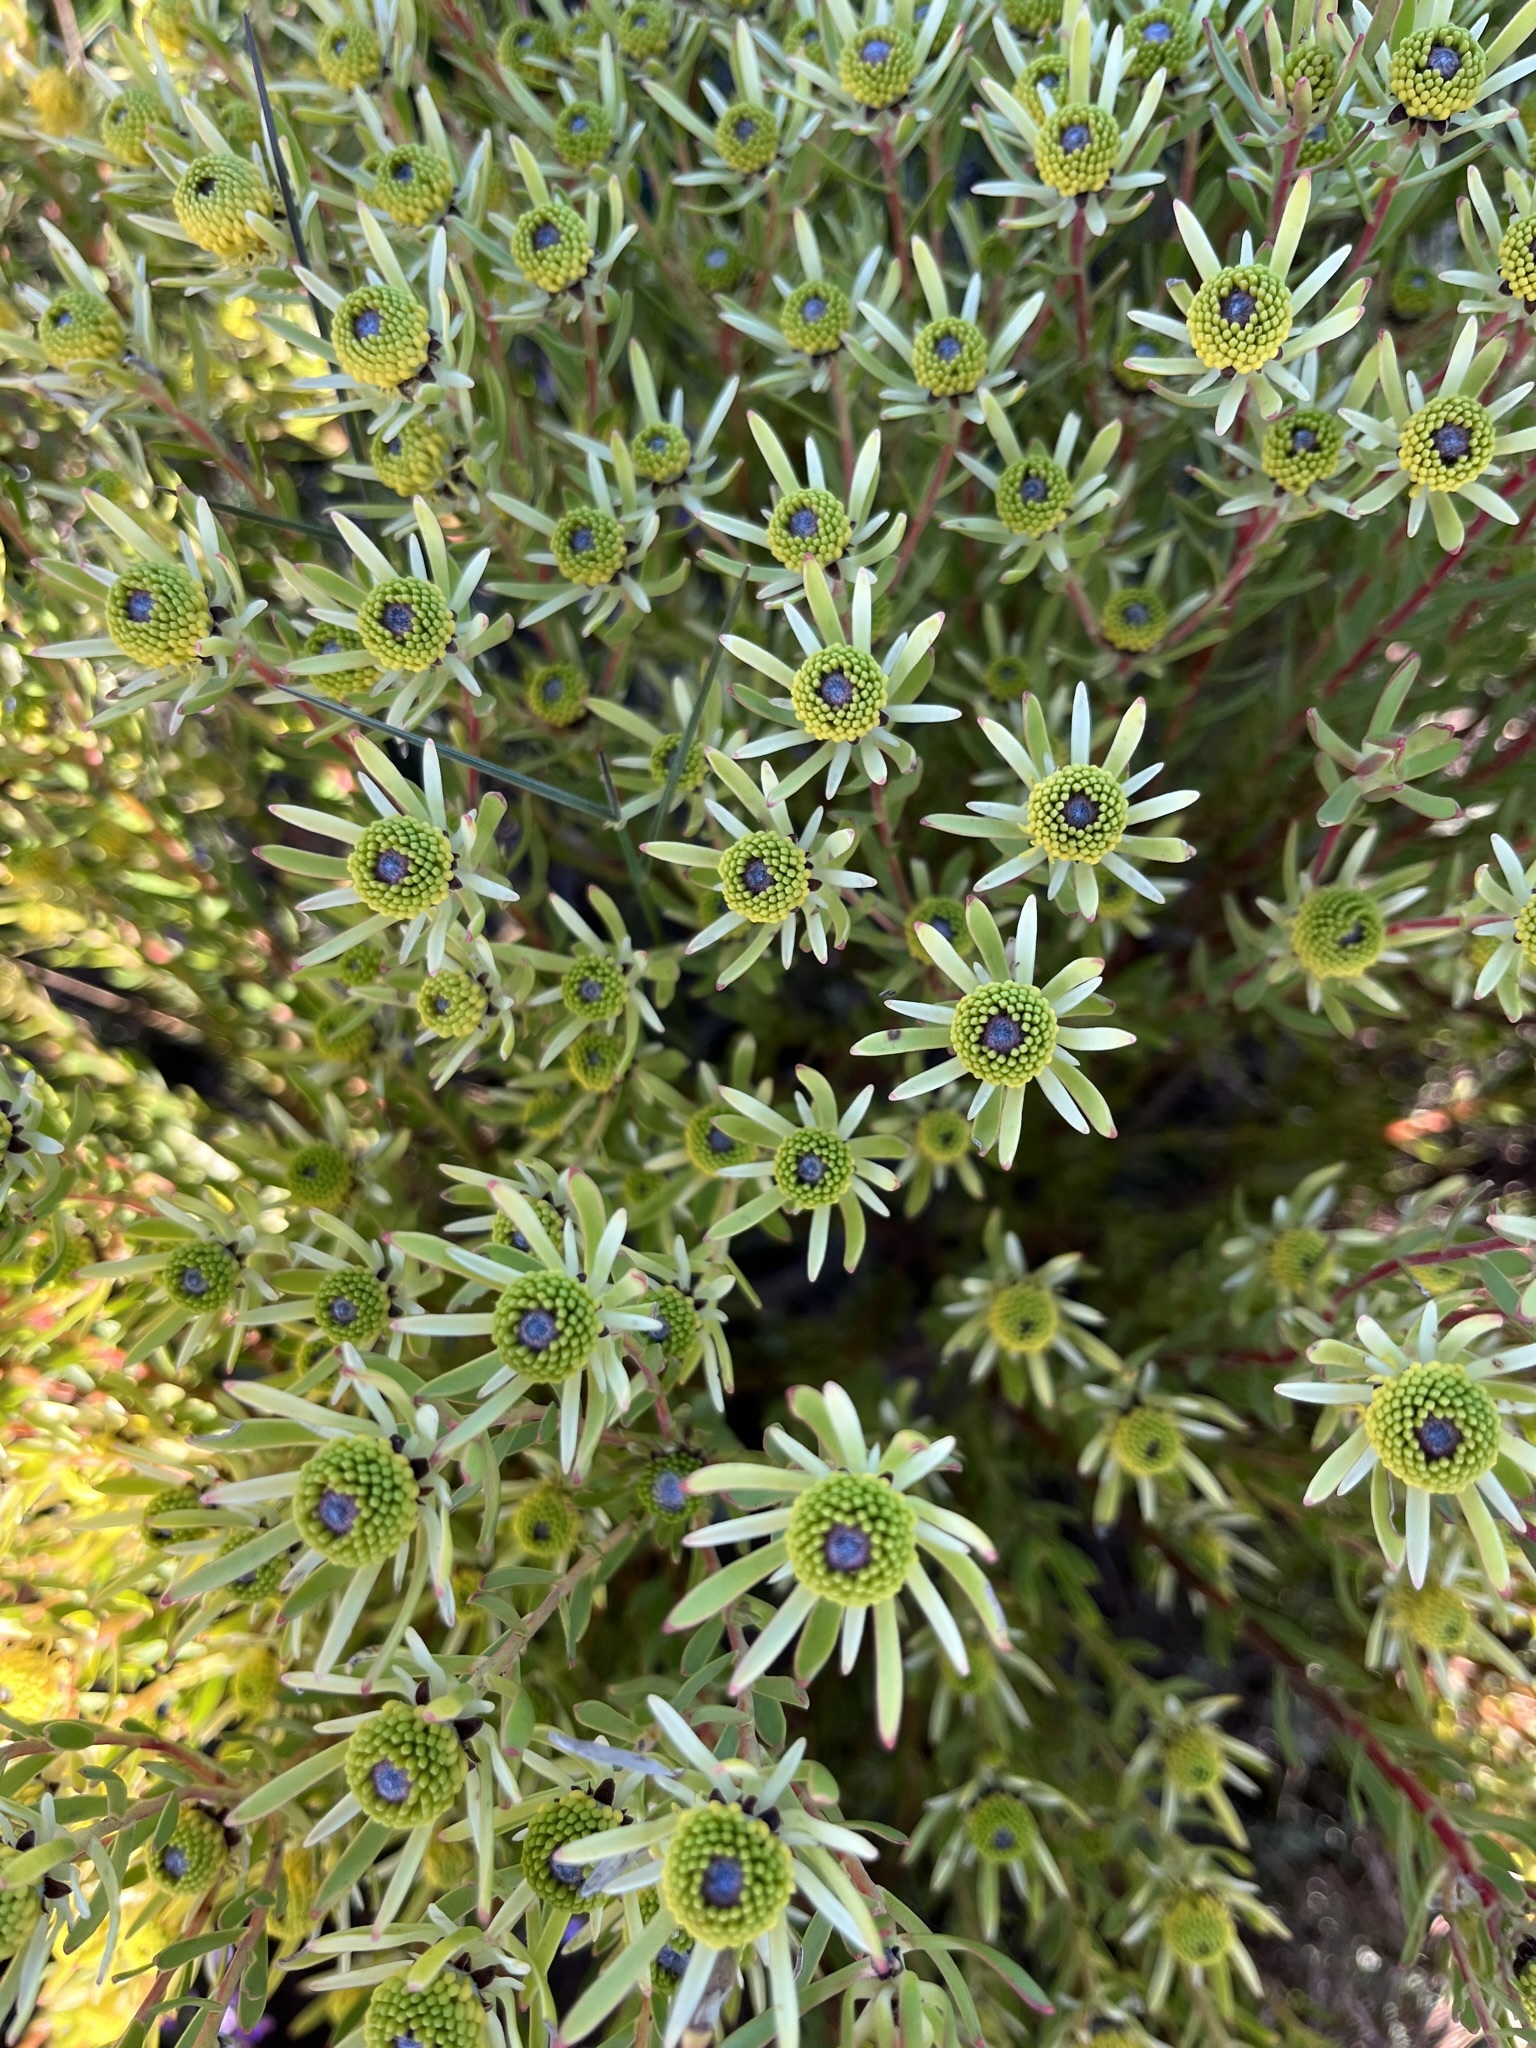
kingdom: Plantae
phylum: Tracheophyta
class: Magnoliopsida
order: Proteales
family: Proteaceae
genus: Leucadendron
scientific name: Leucadendron modestum
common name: Rough-leaf conebush
